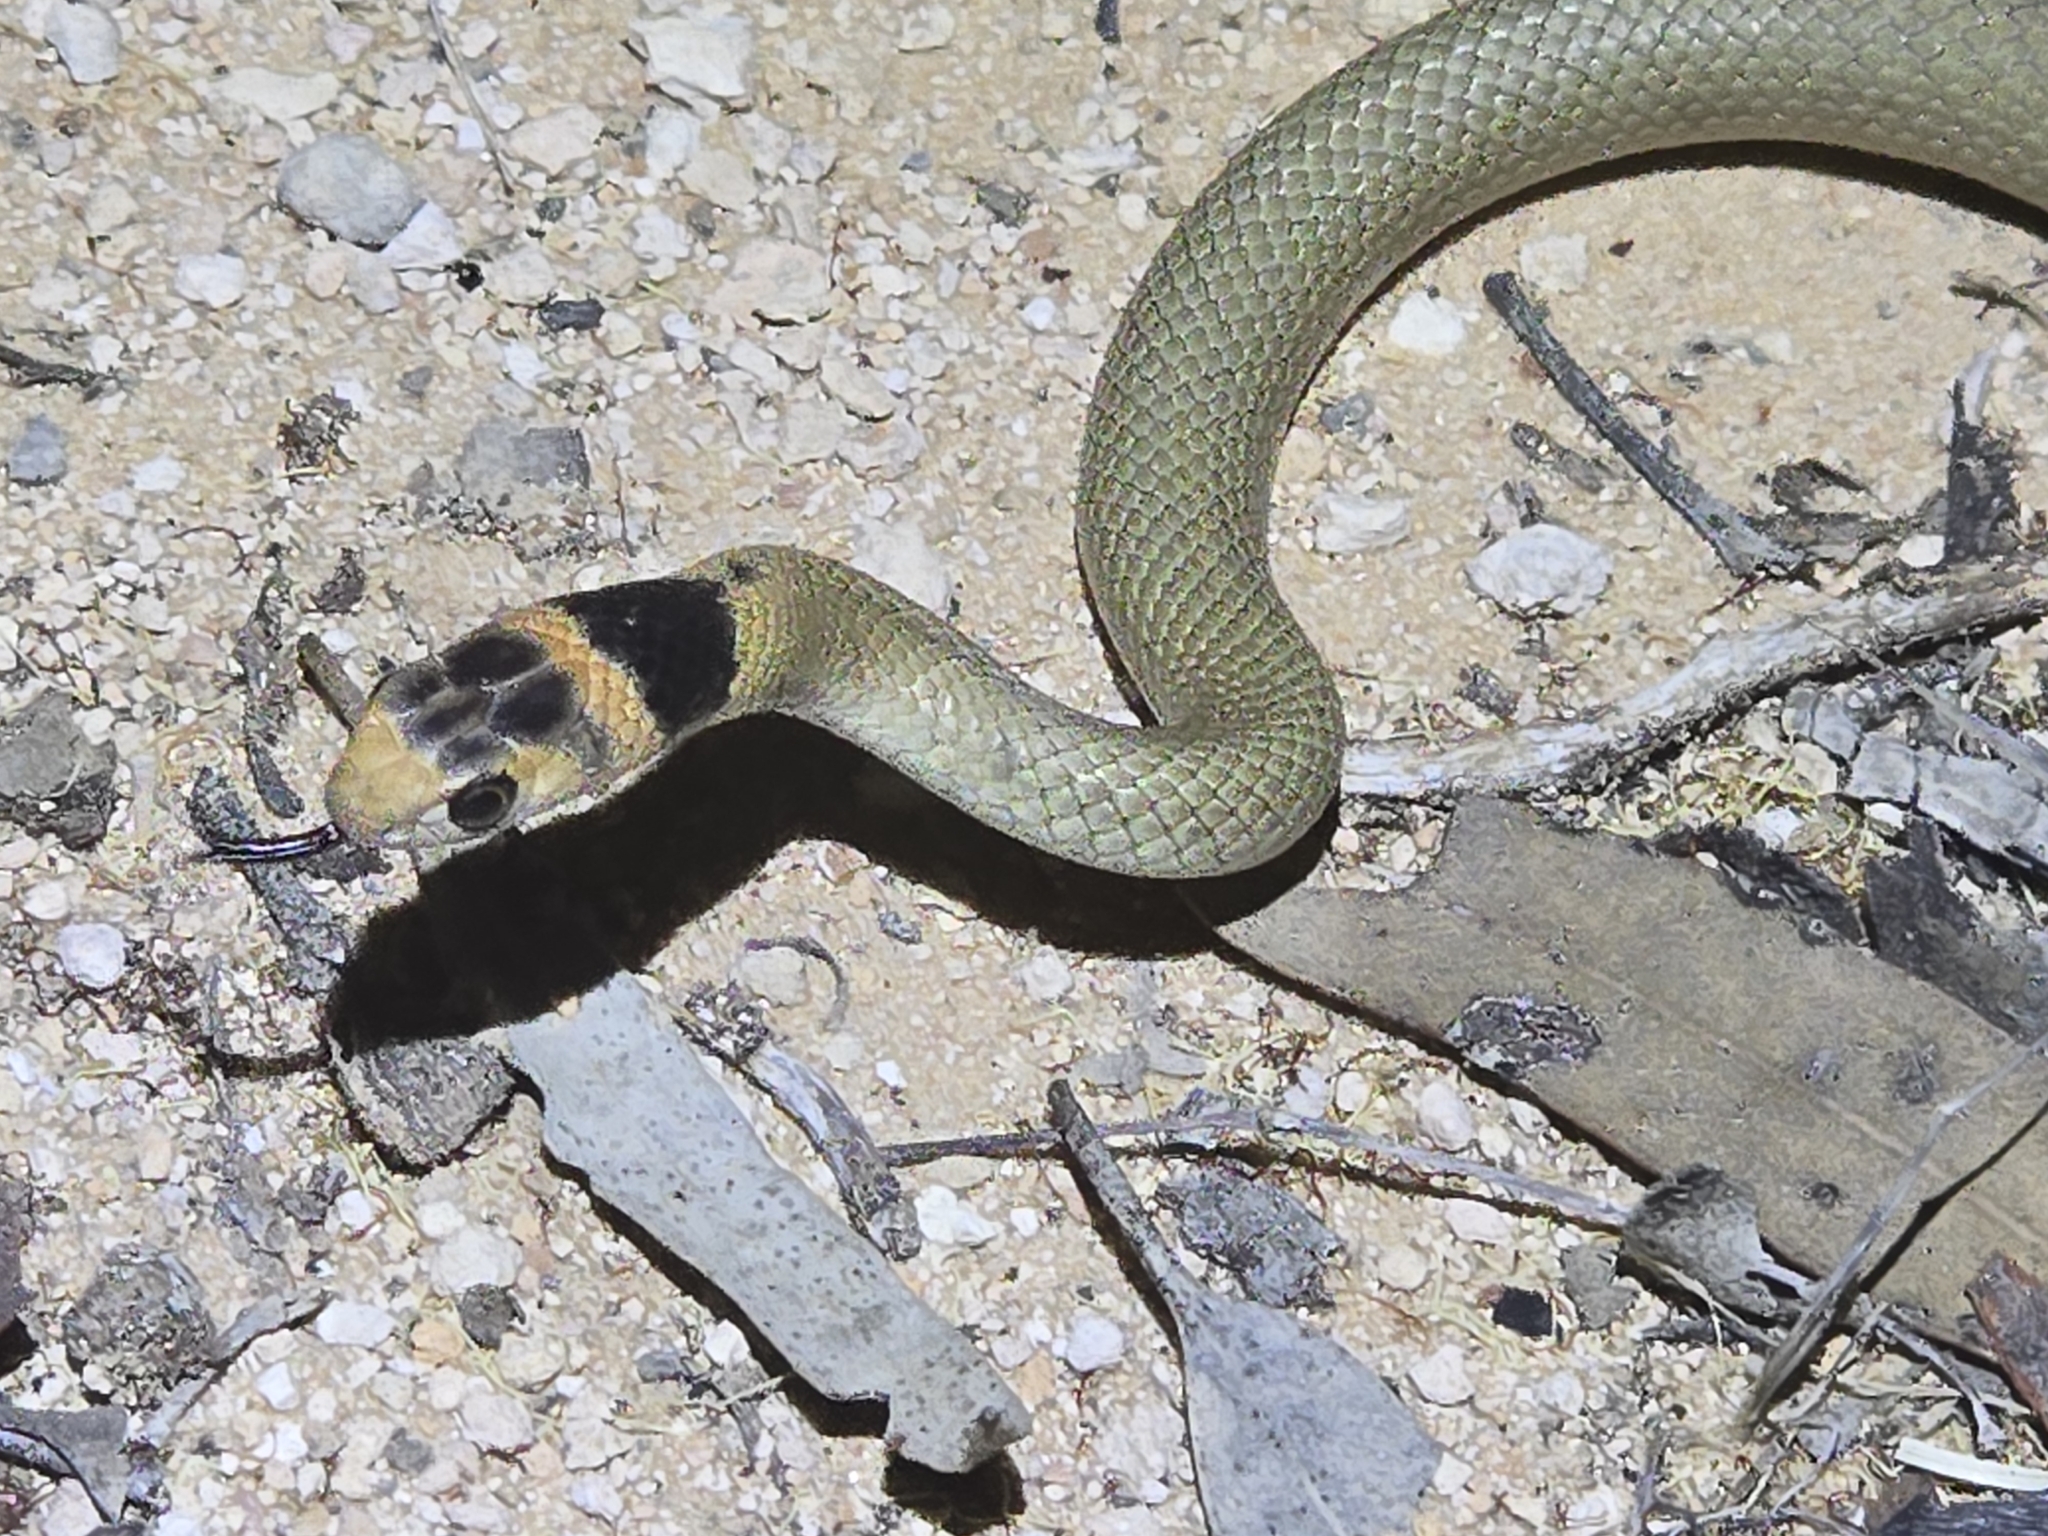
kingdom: Animalia
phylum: Chordata
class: Squamata
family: Elapidae
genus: Pseudonaja
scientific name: Pseudonaja textilis
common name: Eastern brown snake
